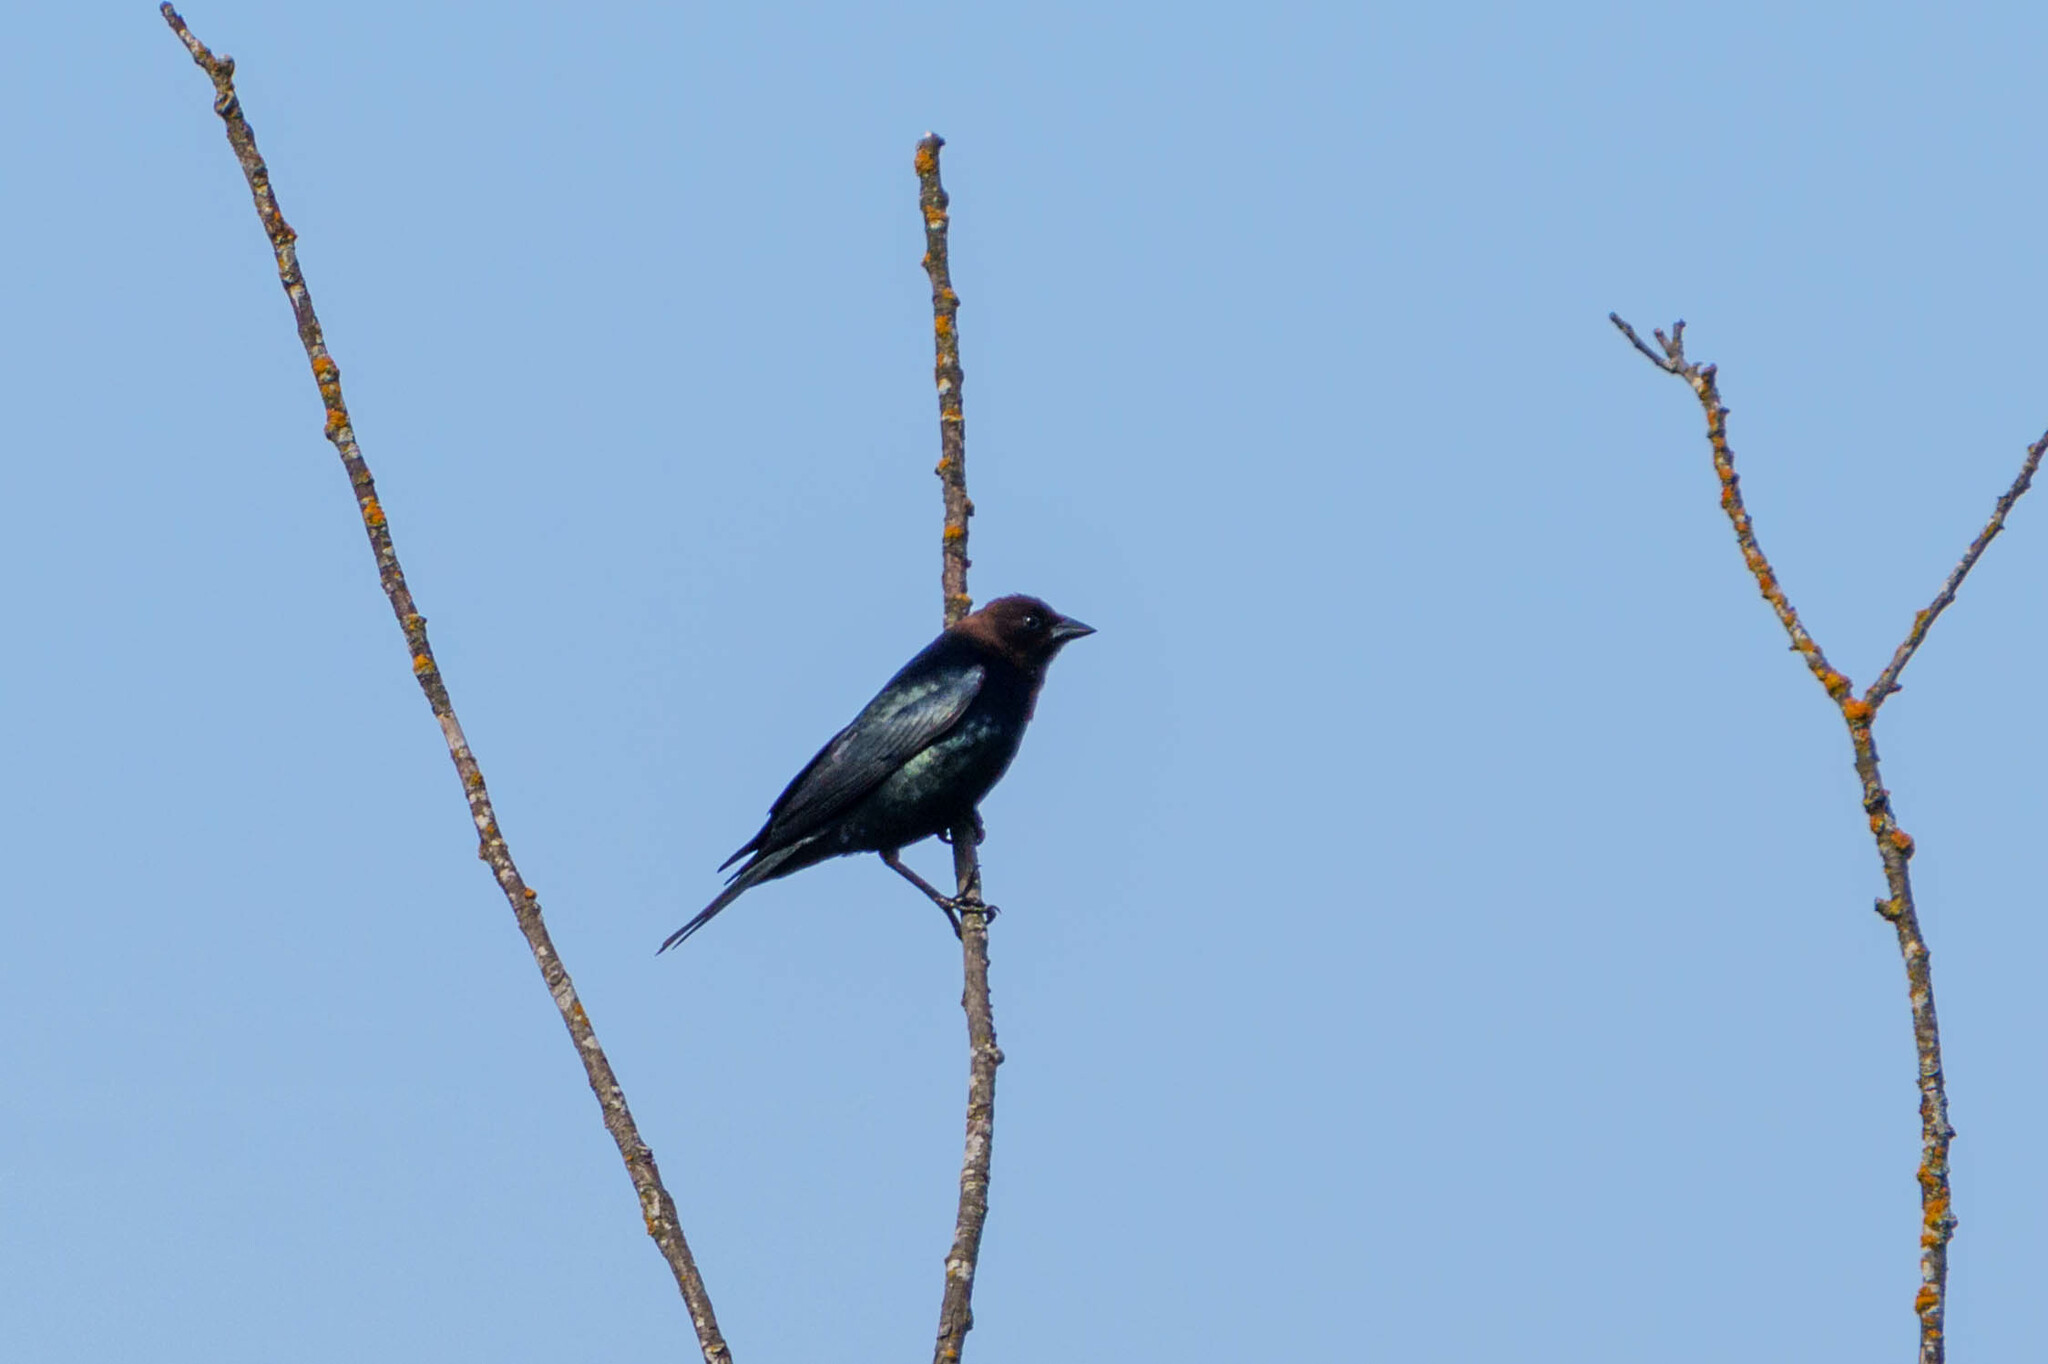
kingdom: Animalia
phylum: Chordata
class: Aves
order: Passeriformes
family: Icteridae
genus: Molothrus
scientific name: Molothrus ater
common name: Brown-headed cowbird
